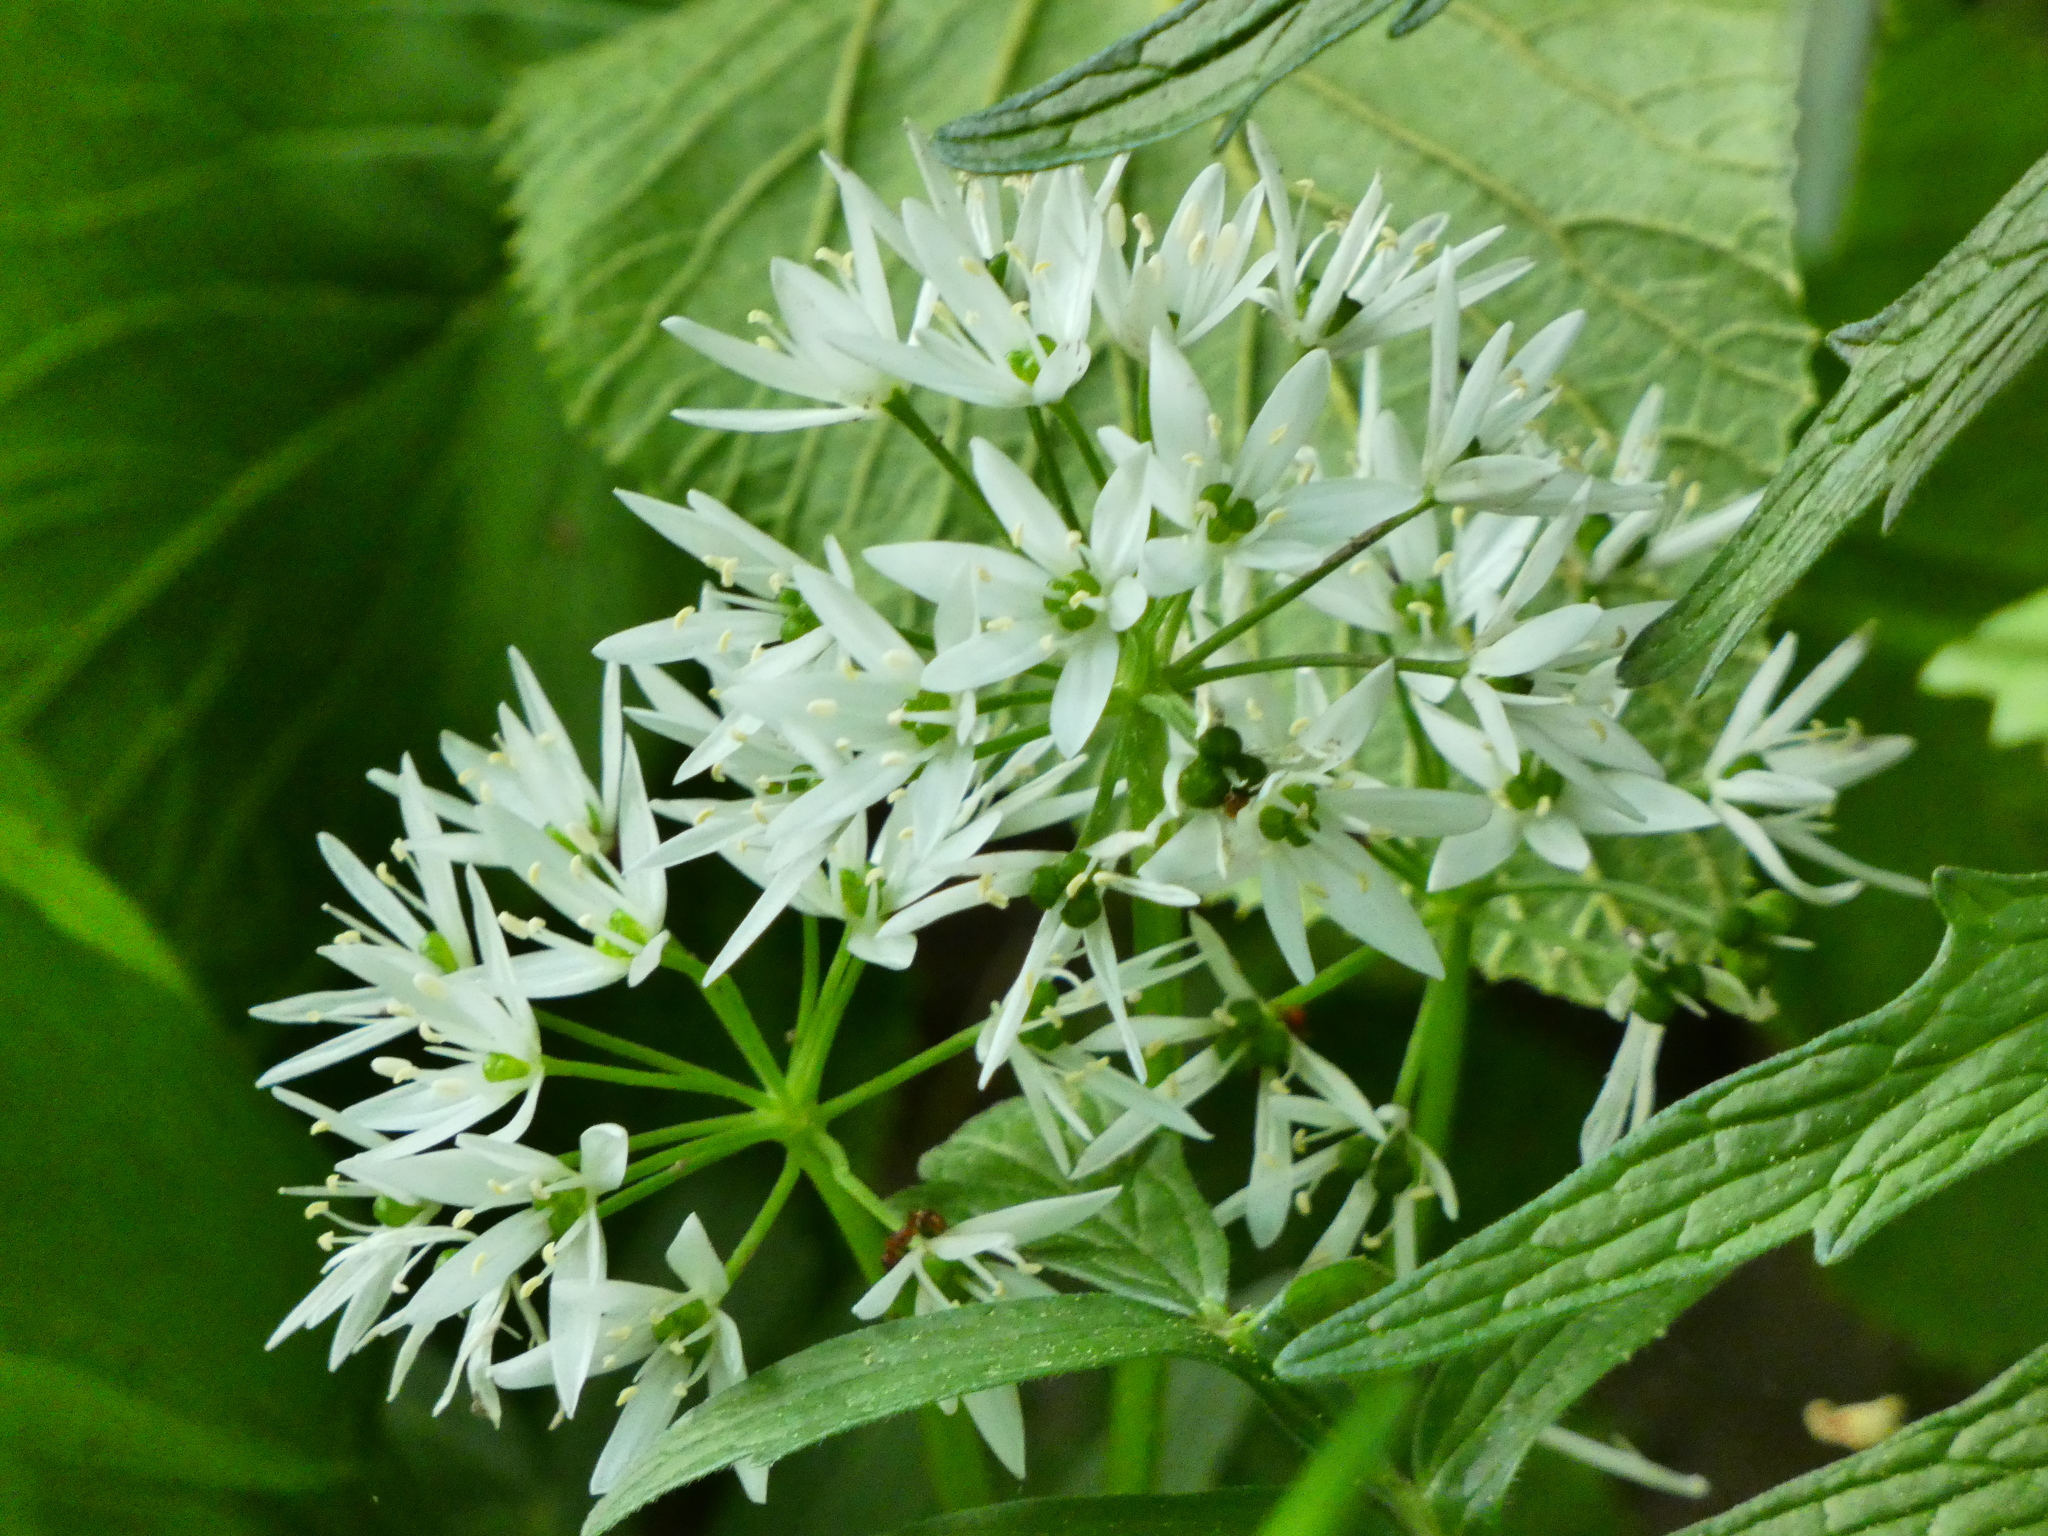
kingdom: Plantae
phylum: Tracheophyta
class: Liliopsida
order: Asparagales
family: Amaryllidaceae
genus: Allium
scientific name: Allium ursinum
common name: Ramsons
